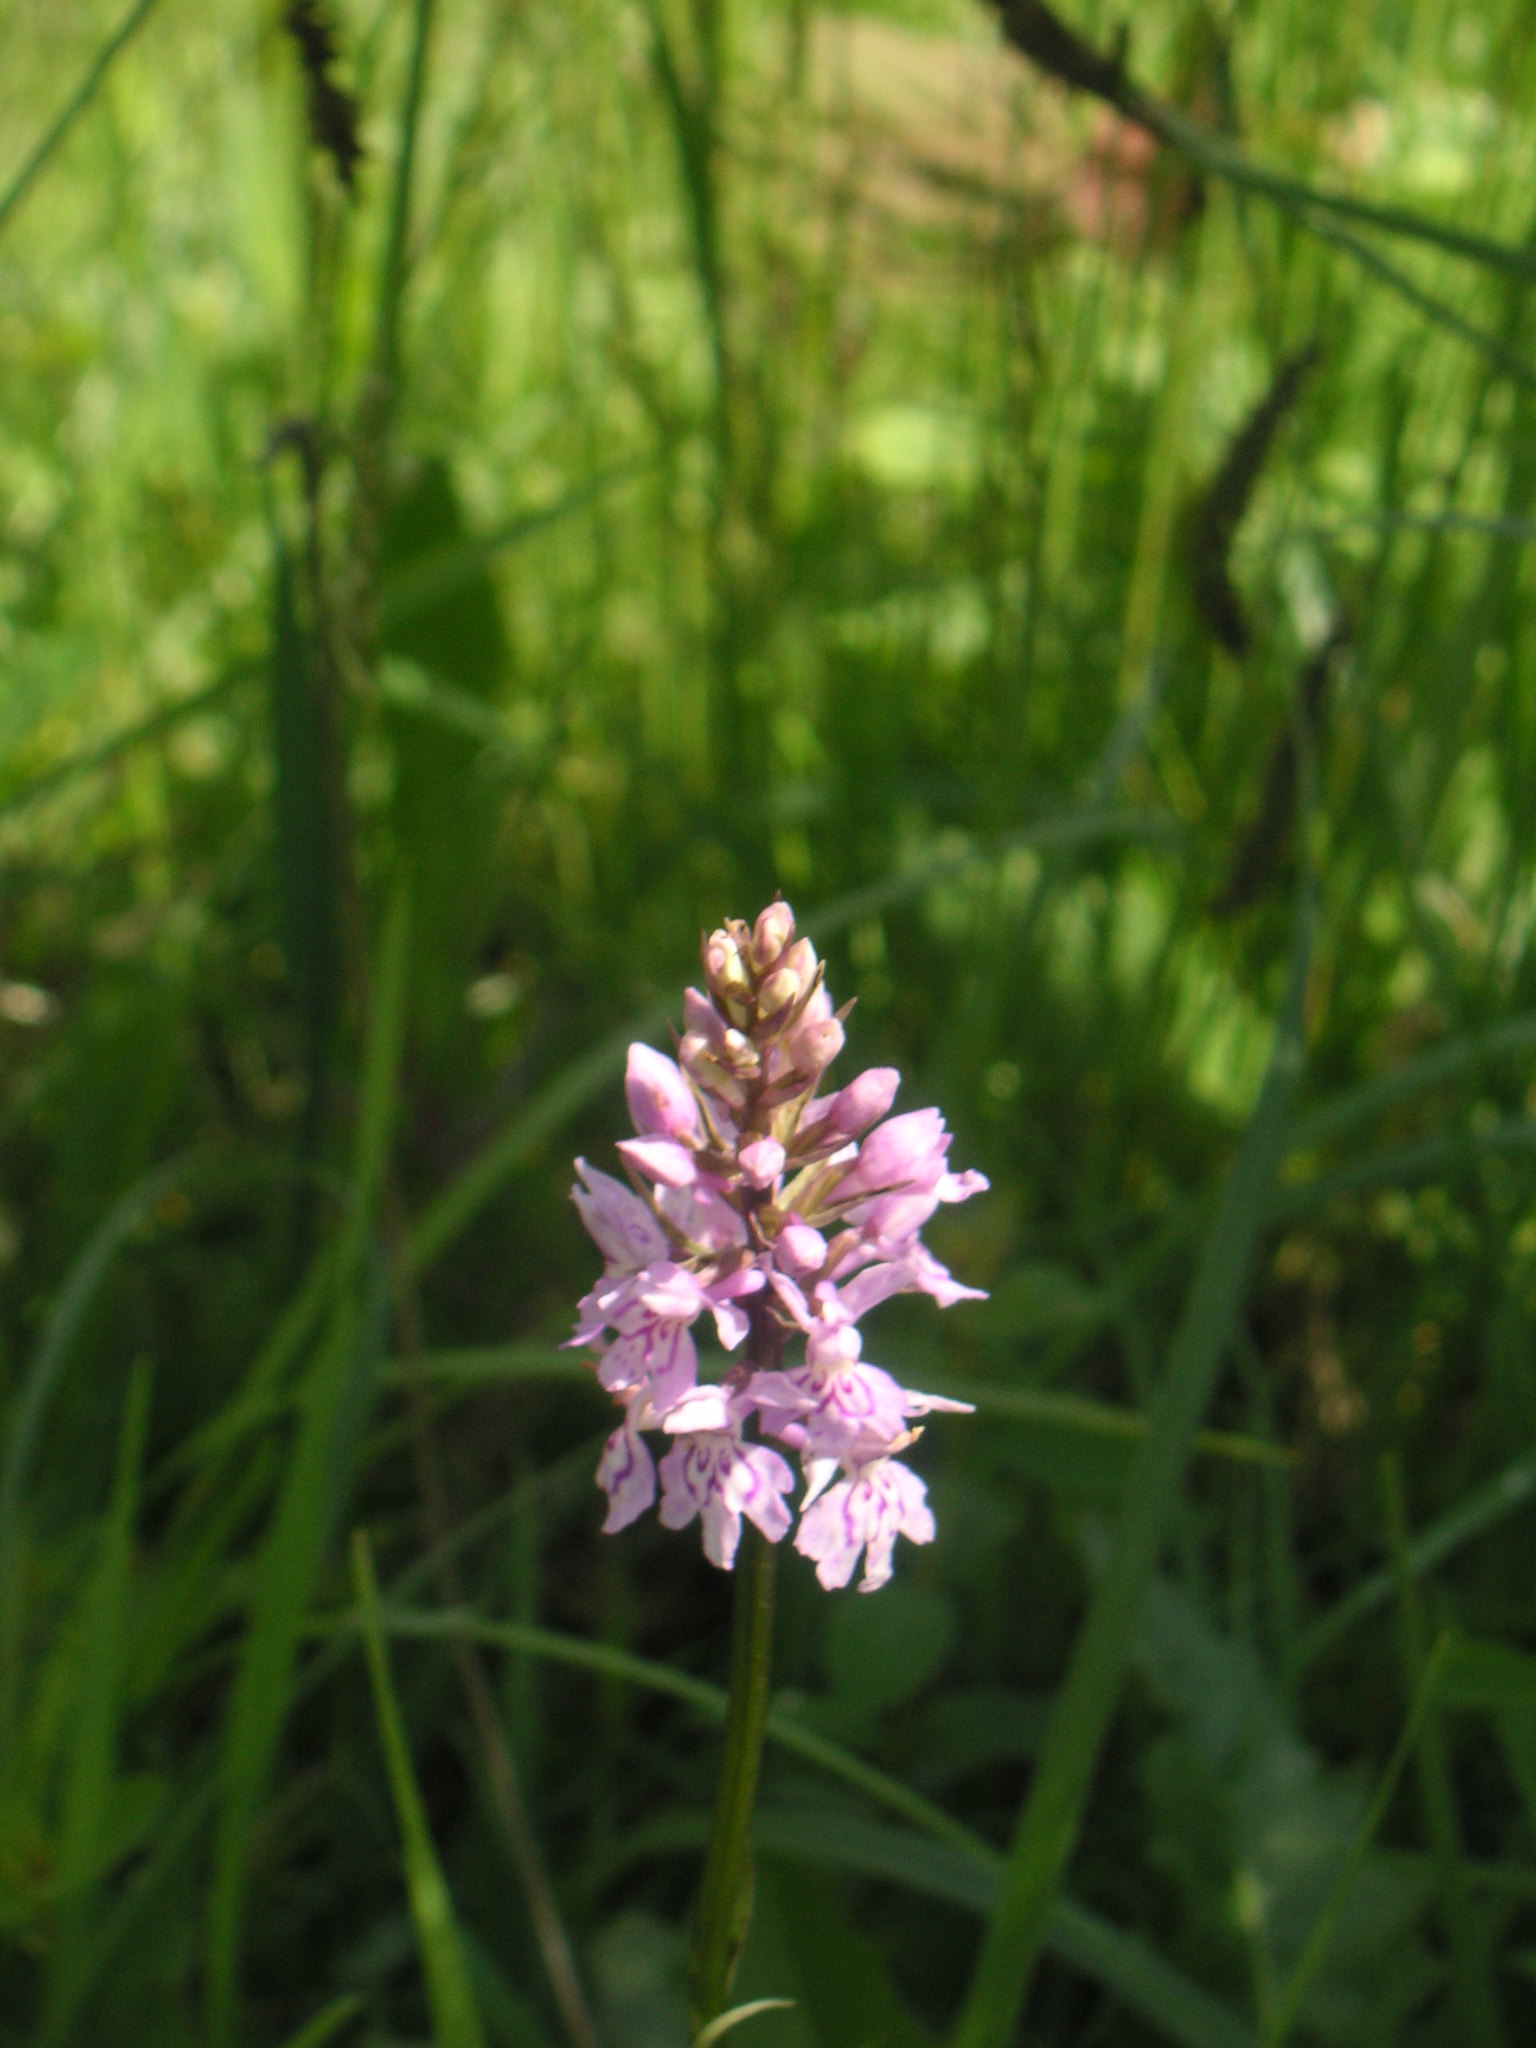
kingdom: Plantae
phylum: Tracheophyta
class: Liliopsida
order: Asparagales
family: Orchidaceae
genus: Dactylorhiza
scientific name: Dactylorhiza maculata
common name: Heath spotted-orchid
